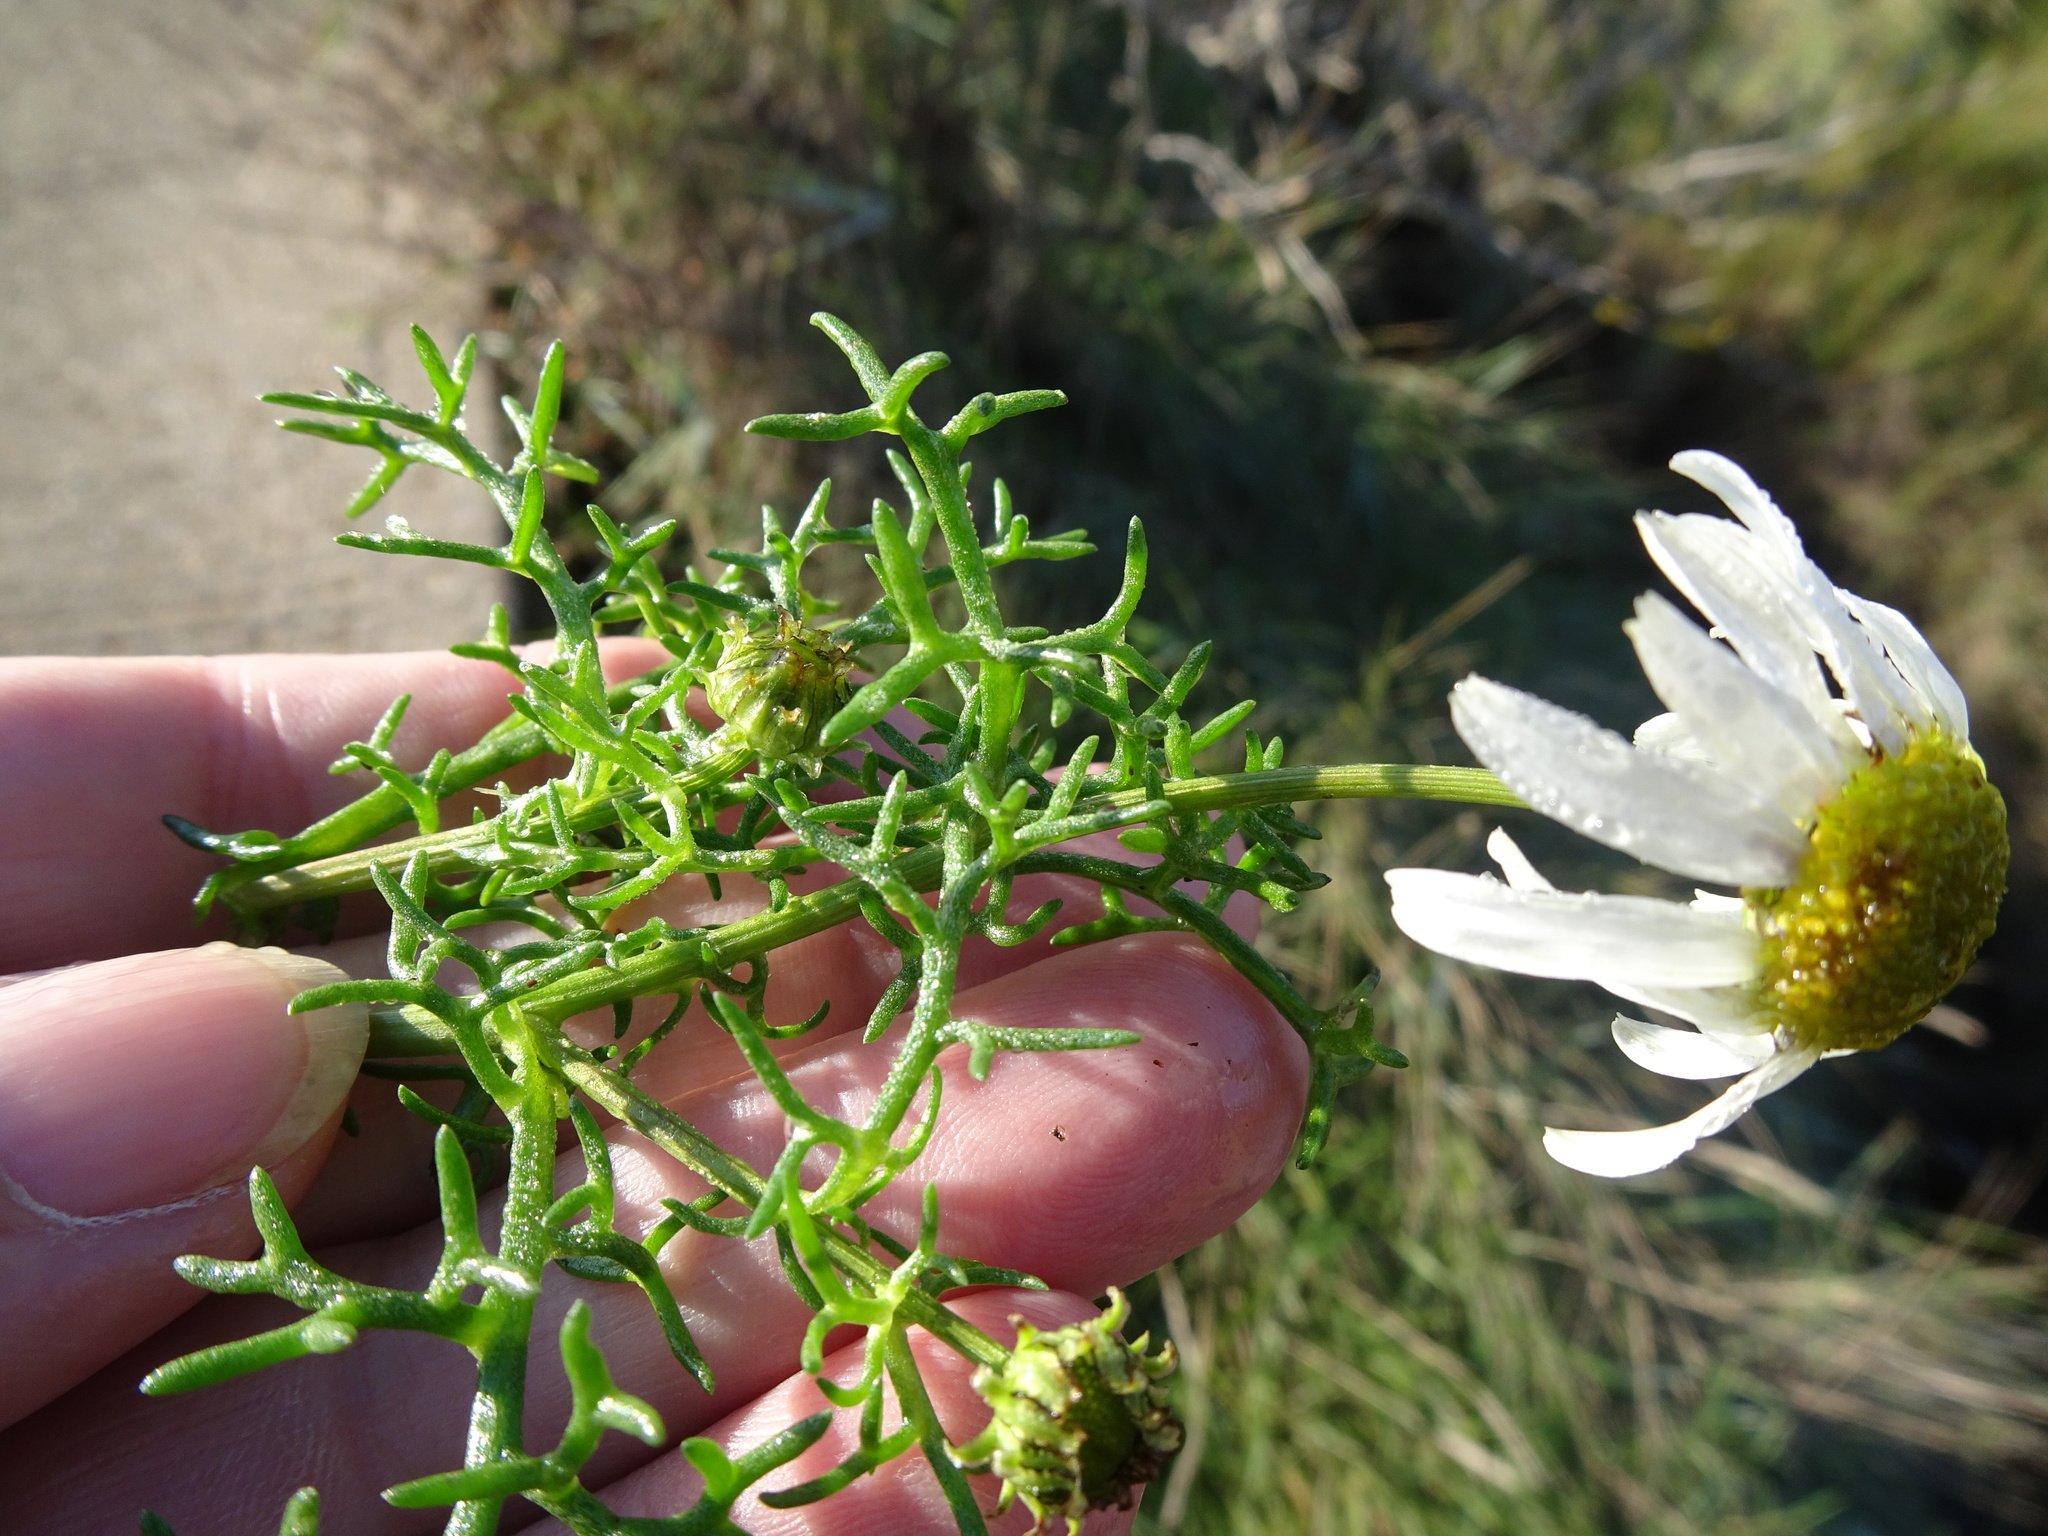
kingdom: Plantae
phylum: Tracheophyta
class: Magnoliopsida
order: Asterales
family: Asteraceae
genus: Tripleurospermum
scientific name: Tripleurospermum maritimum
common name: Sea mayweed
